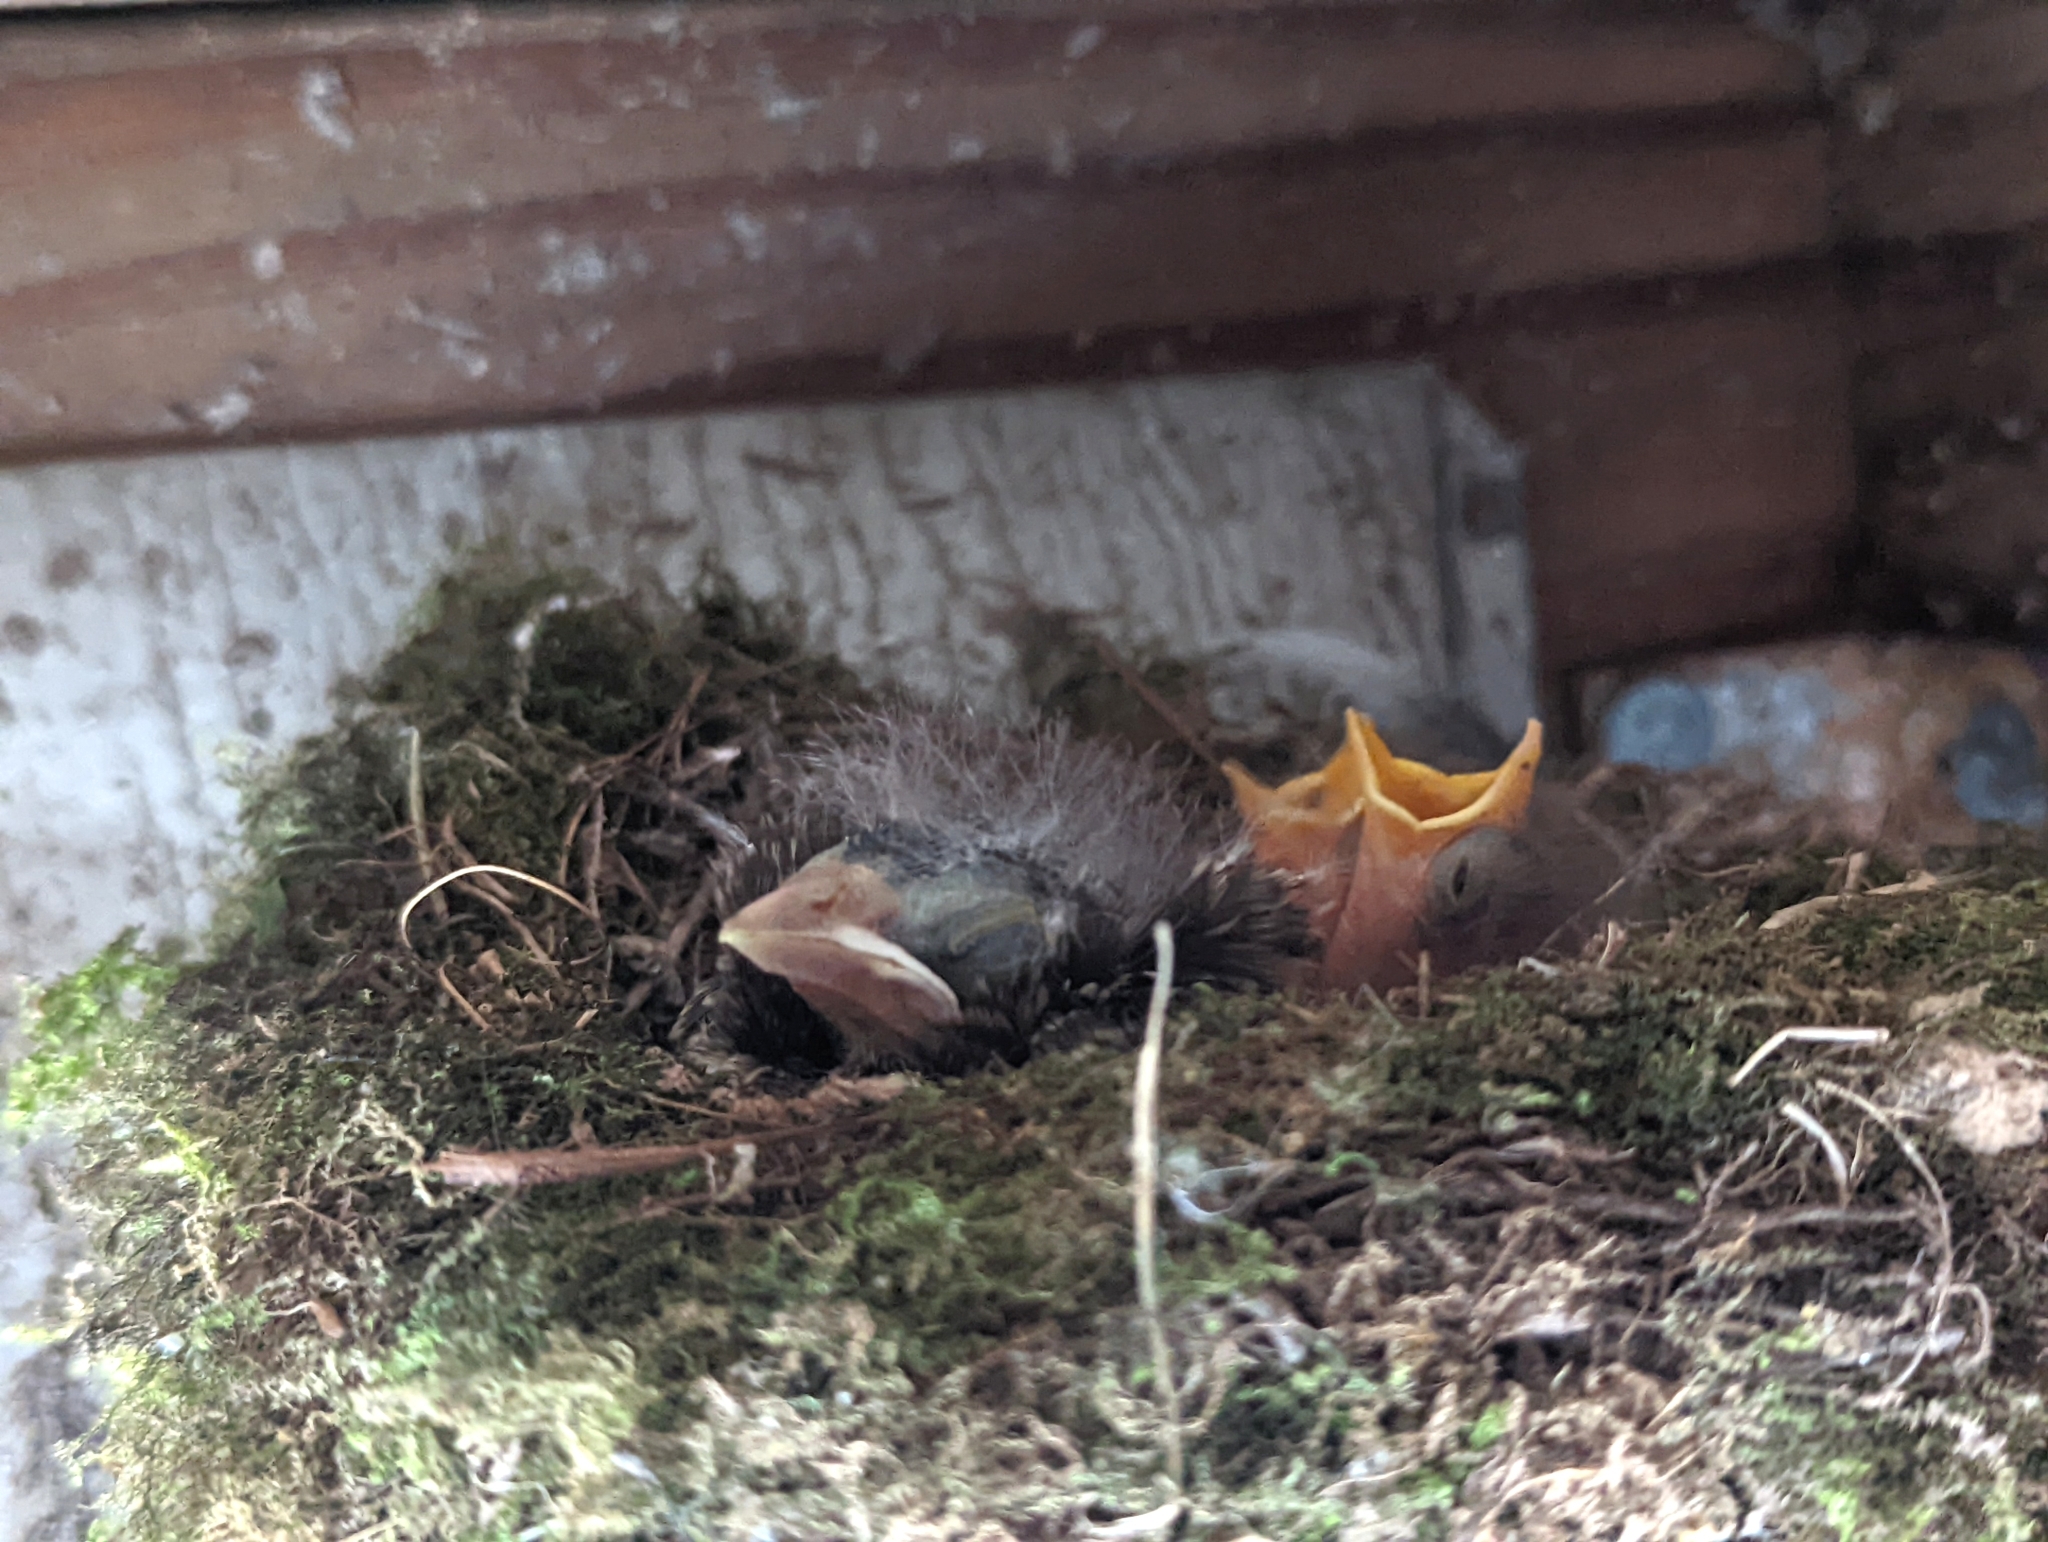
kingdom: Animalia
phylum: Chordata
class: Aves
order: Passeriformes
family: Tyrannidae
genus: Sayornis
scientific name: Sayornis phoebe
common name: Eastern phoebe
